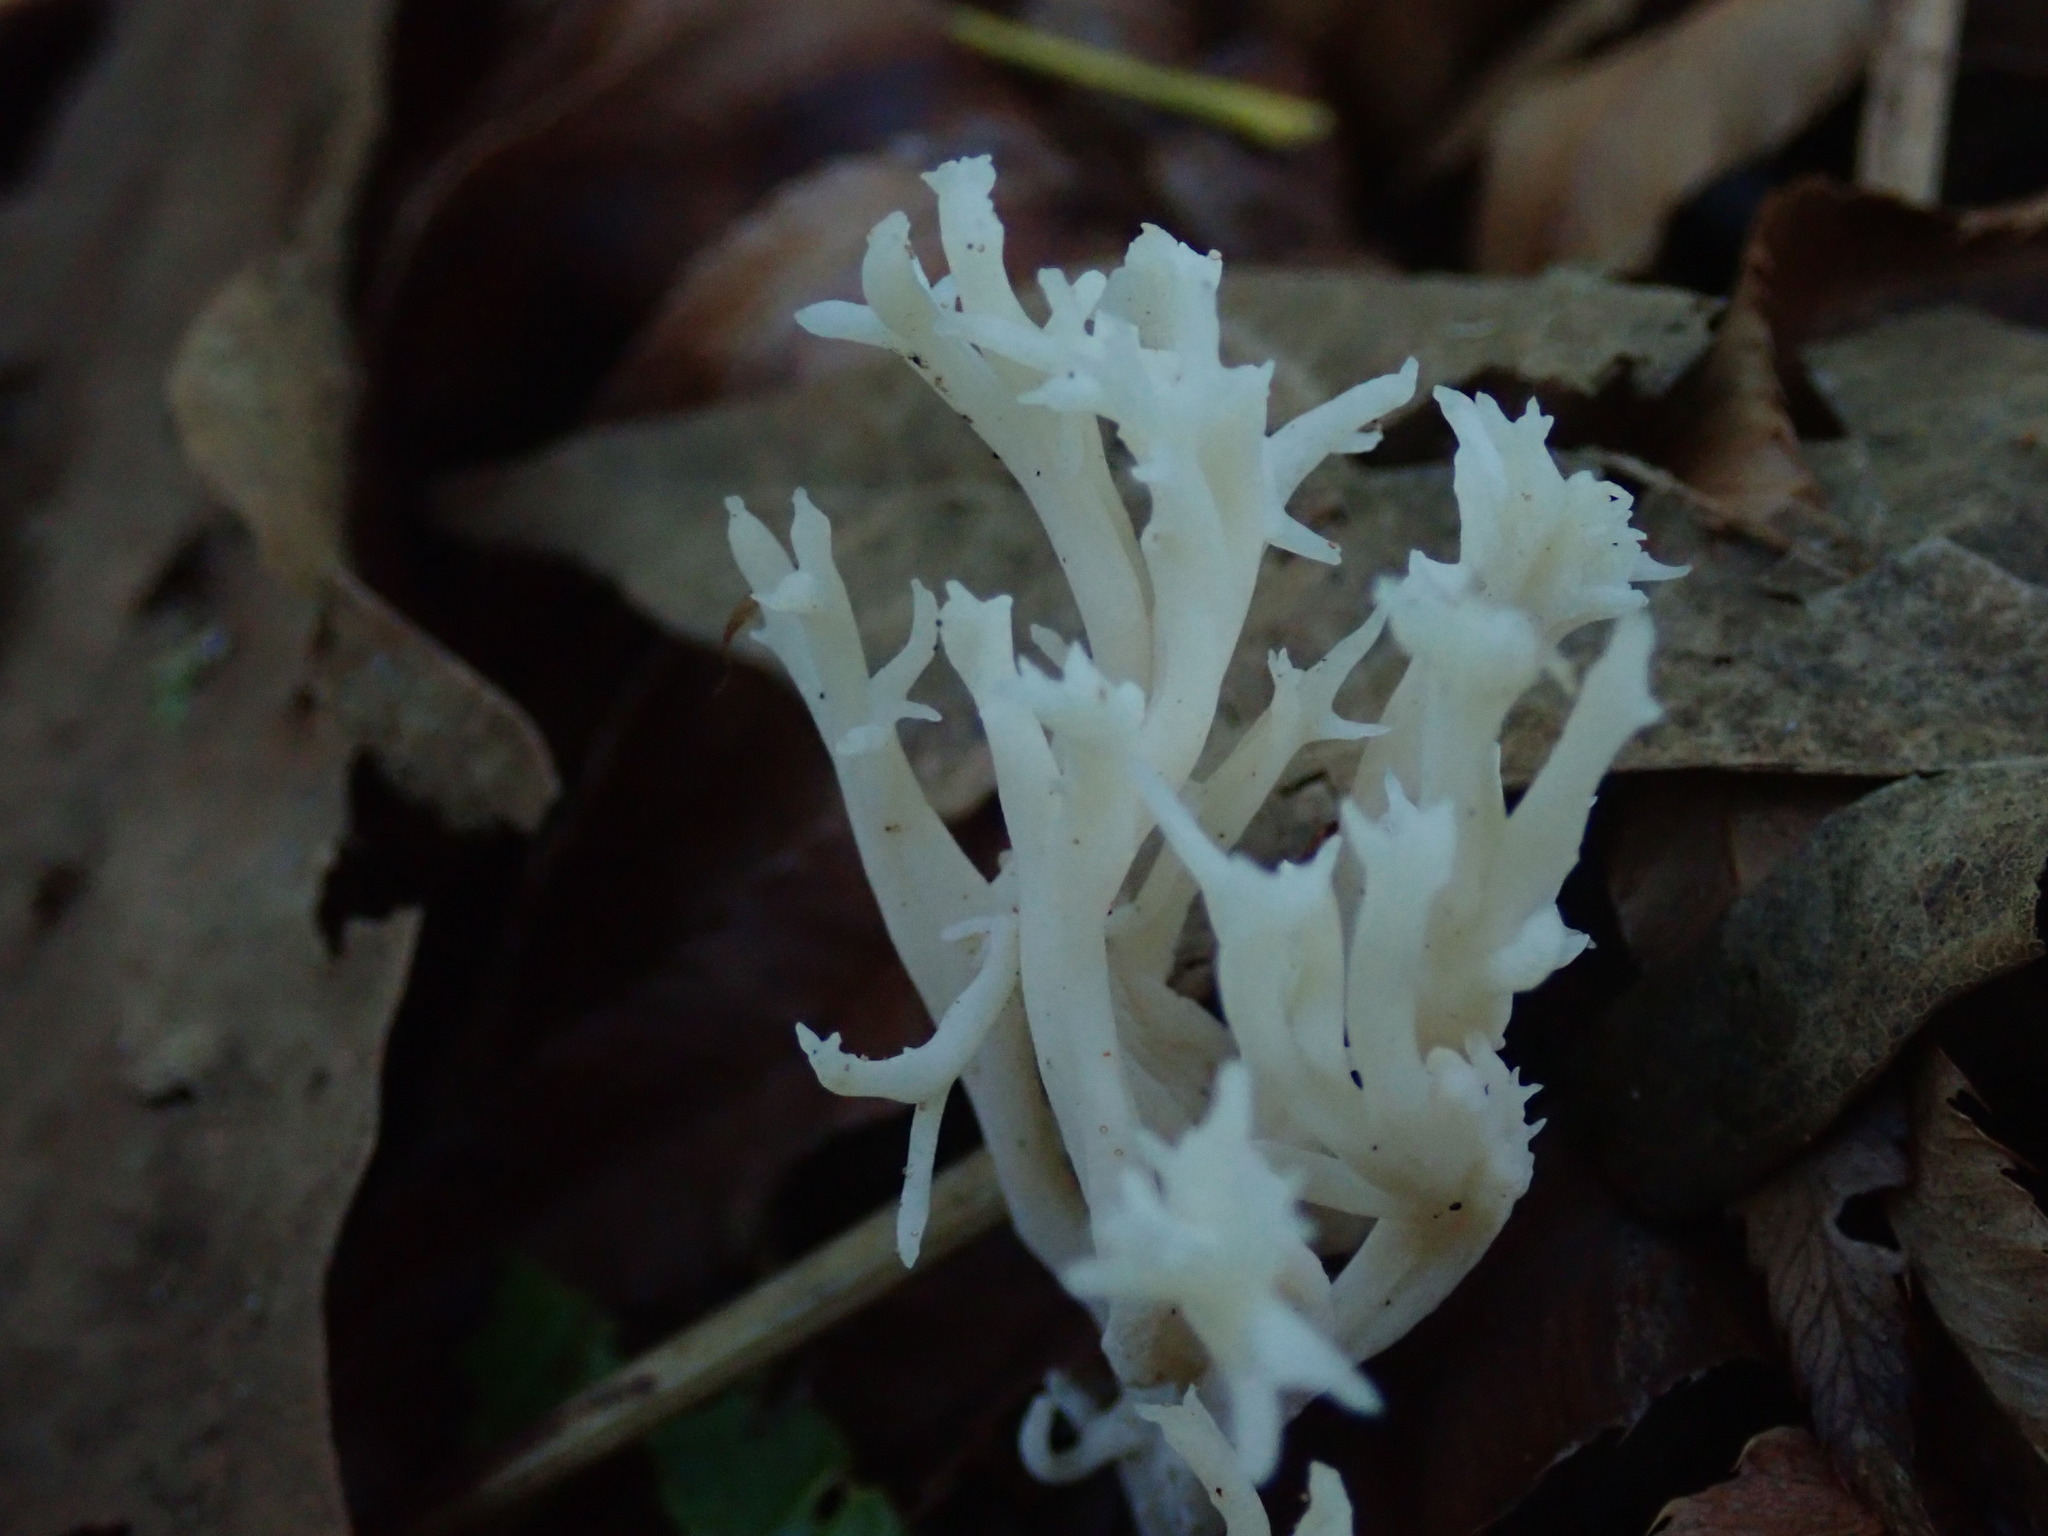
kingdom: Fungi
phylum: Basidiomycota
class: Agaricomycetes
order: Cantharellales
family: Hydnaceae
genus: Clavulina
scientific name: Clavulina coralloides
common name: Crested coral
